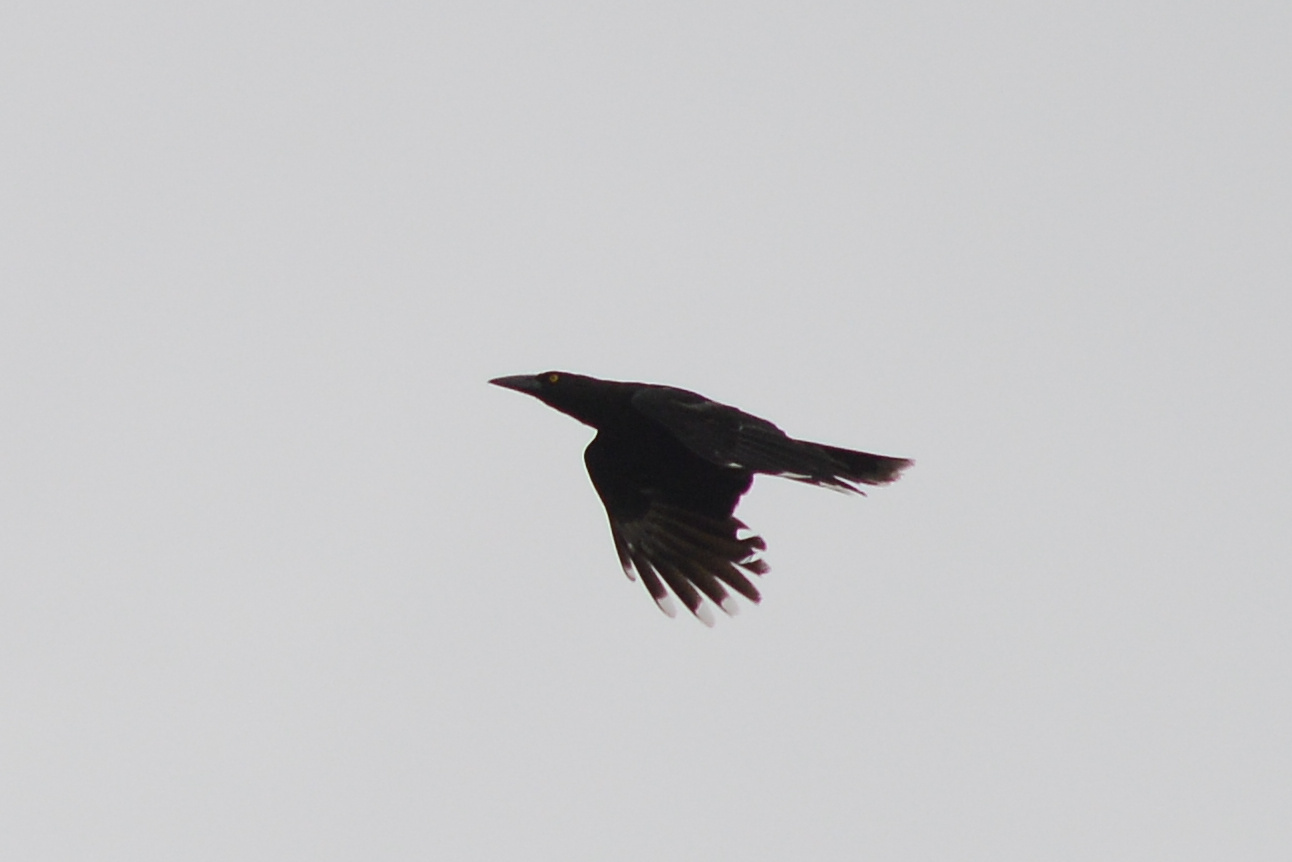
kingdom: Animalia
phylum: Chordata
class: Aves
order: Passeriformes
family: Cracticidae
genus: Strepera
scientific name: Strepera fuliginosa
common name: Black currawong
